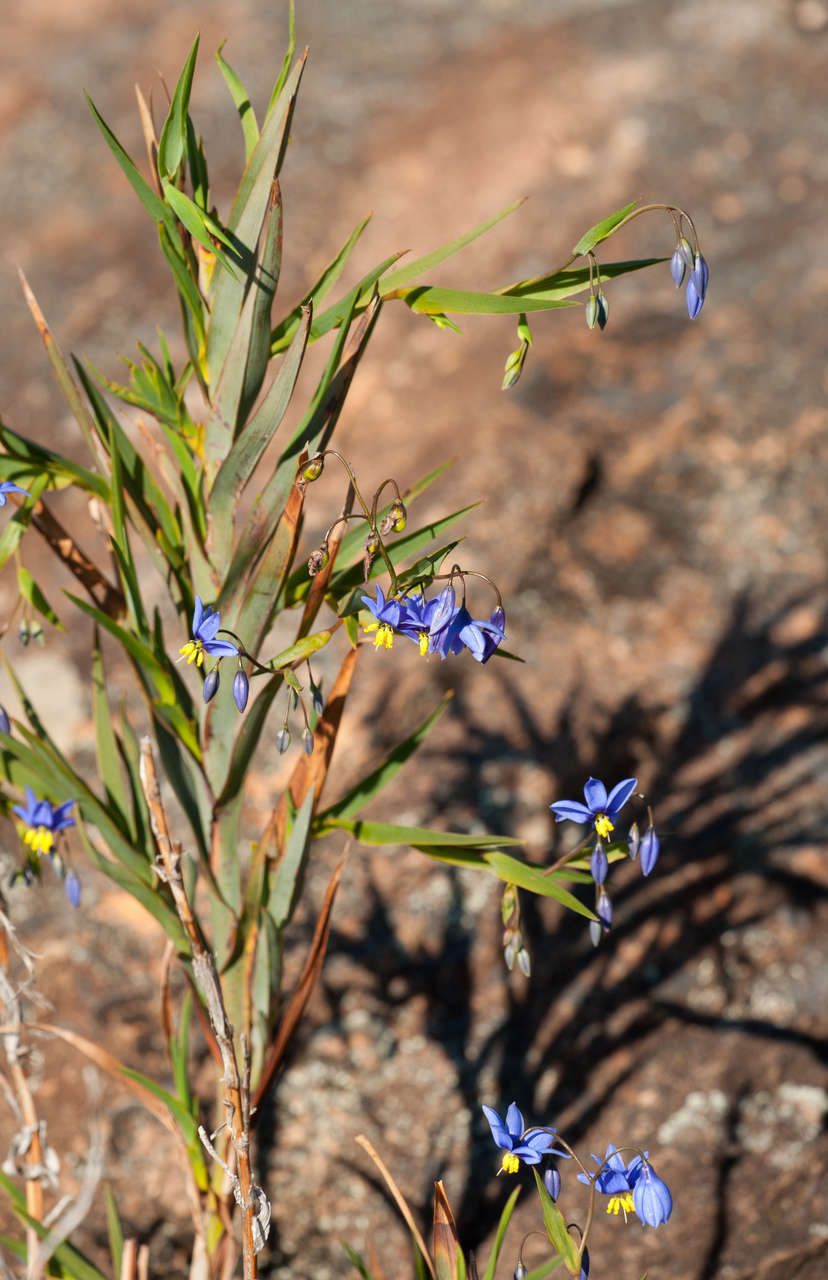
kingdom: Plantae
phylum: Tracheophyta
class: Liliopsida
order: Asparagales
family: Asphodelaceae
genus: Stypandra
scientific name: Stypandra glauca
